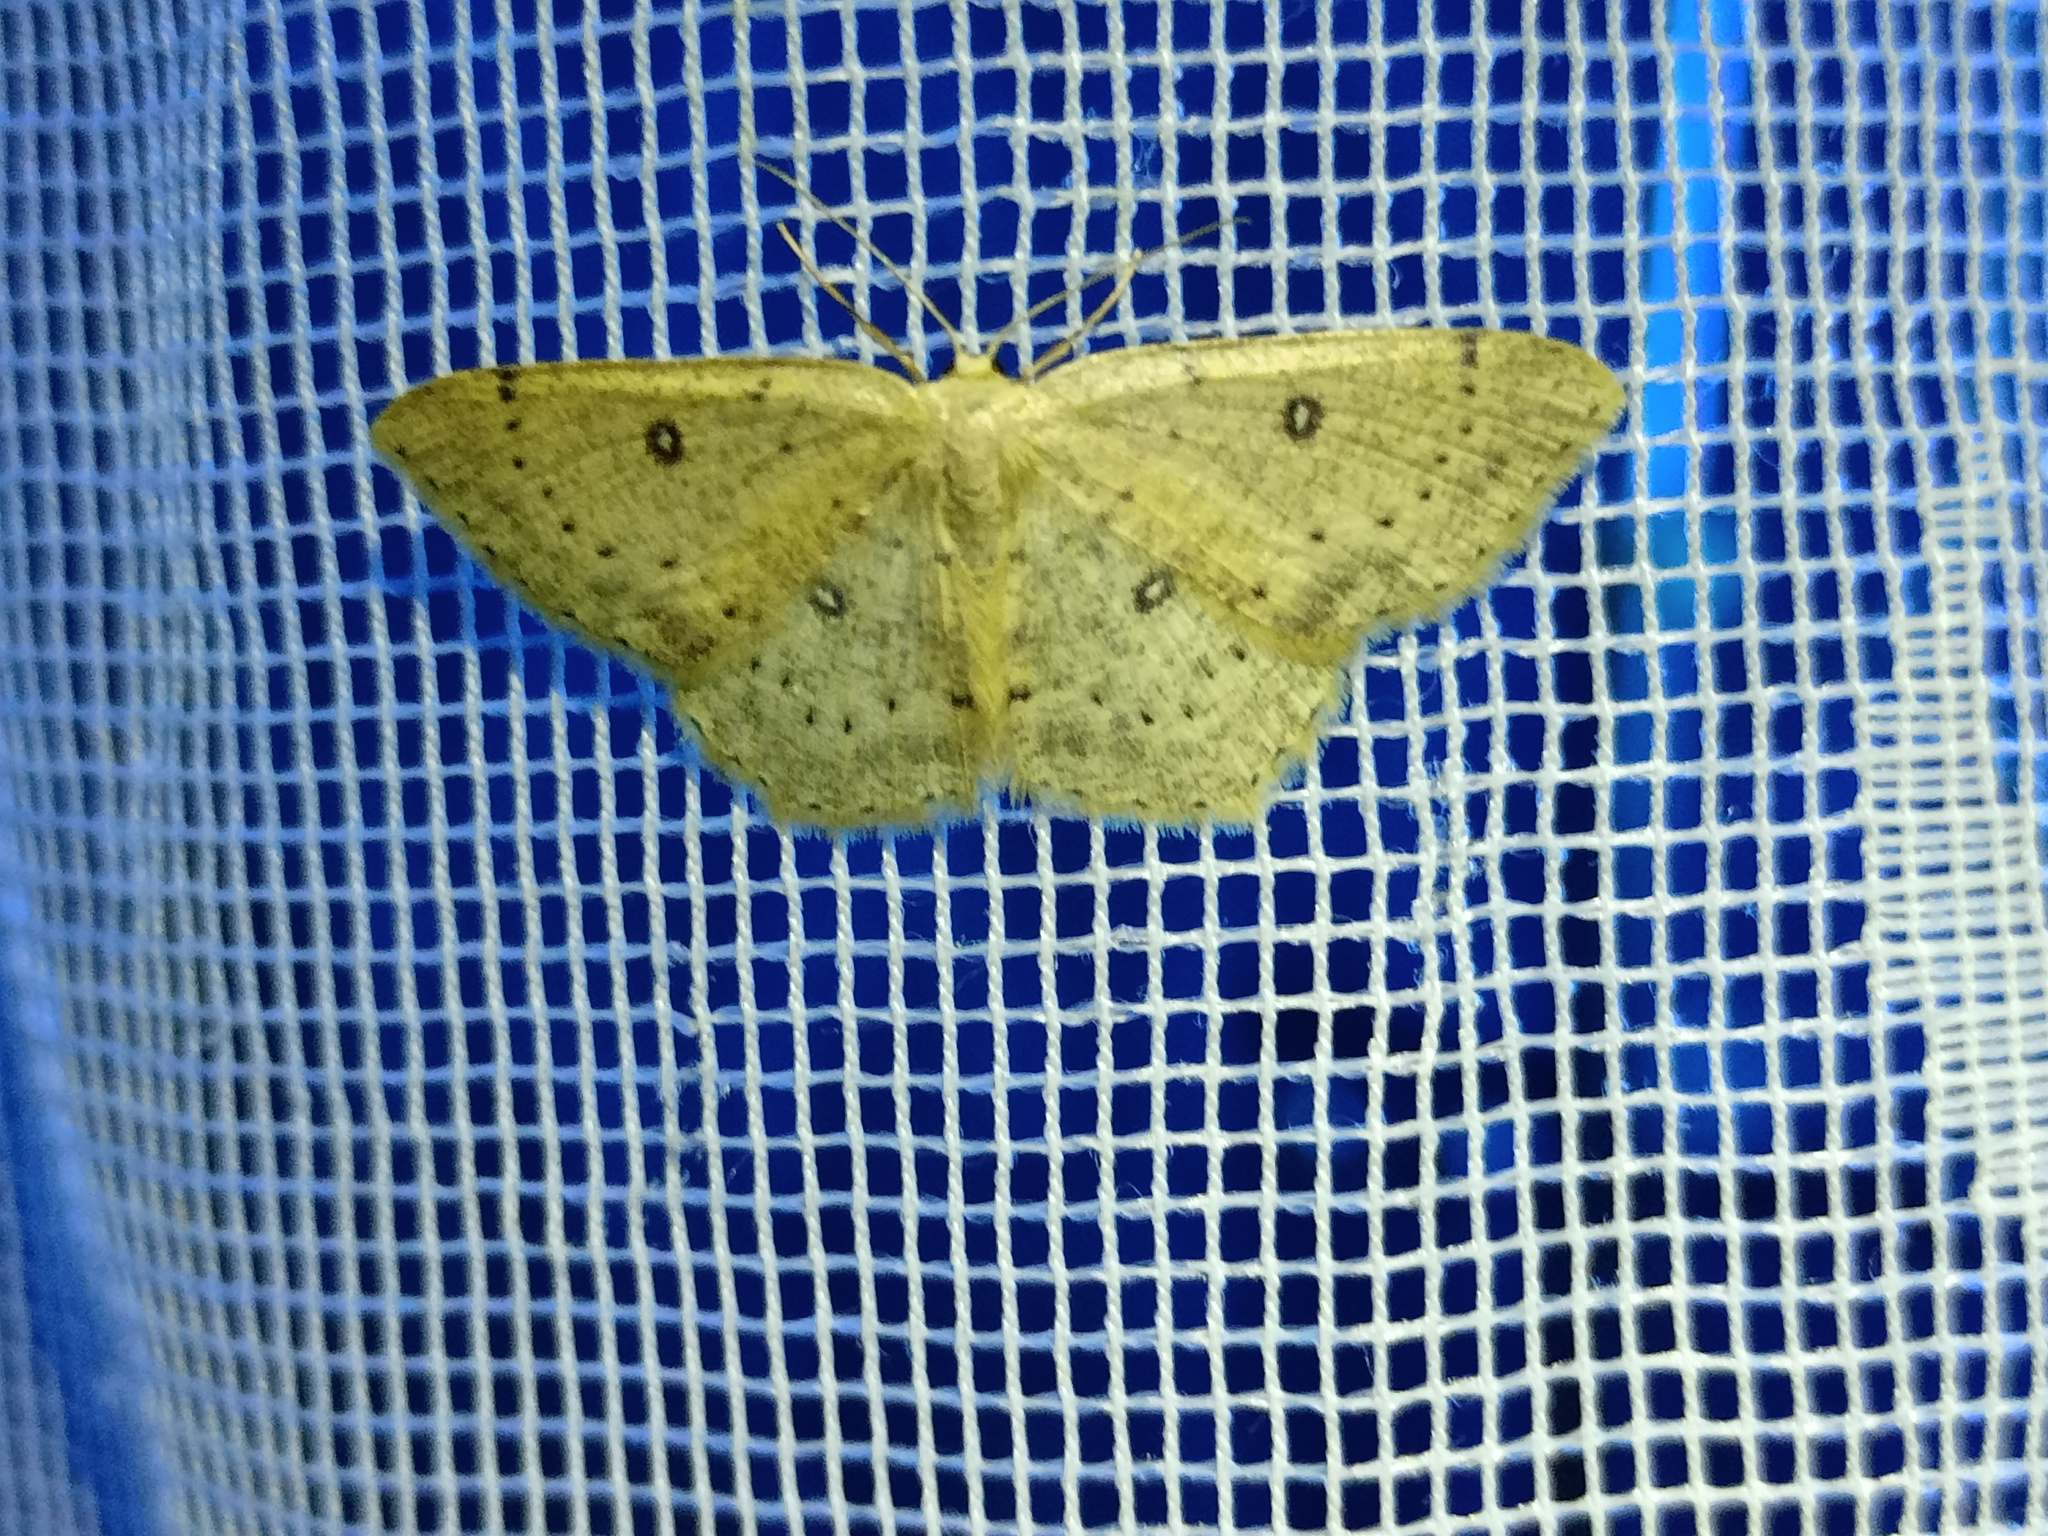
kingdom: Animalia
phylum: Arthropoda
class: Insecta
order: Lepidoptera
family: Geometridae
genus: Cyclophora
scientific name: Cyclophora albipunctata
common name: Birch mocha
